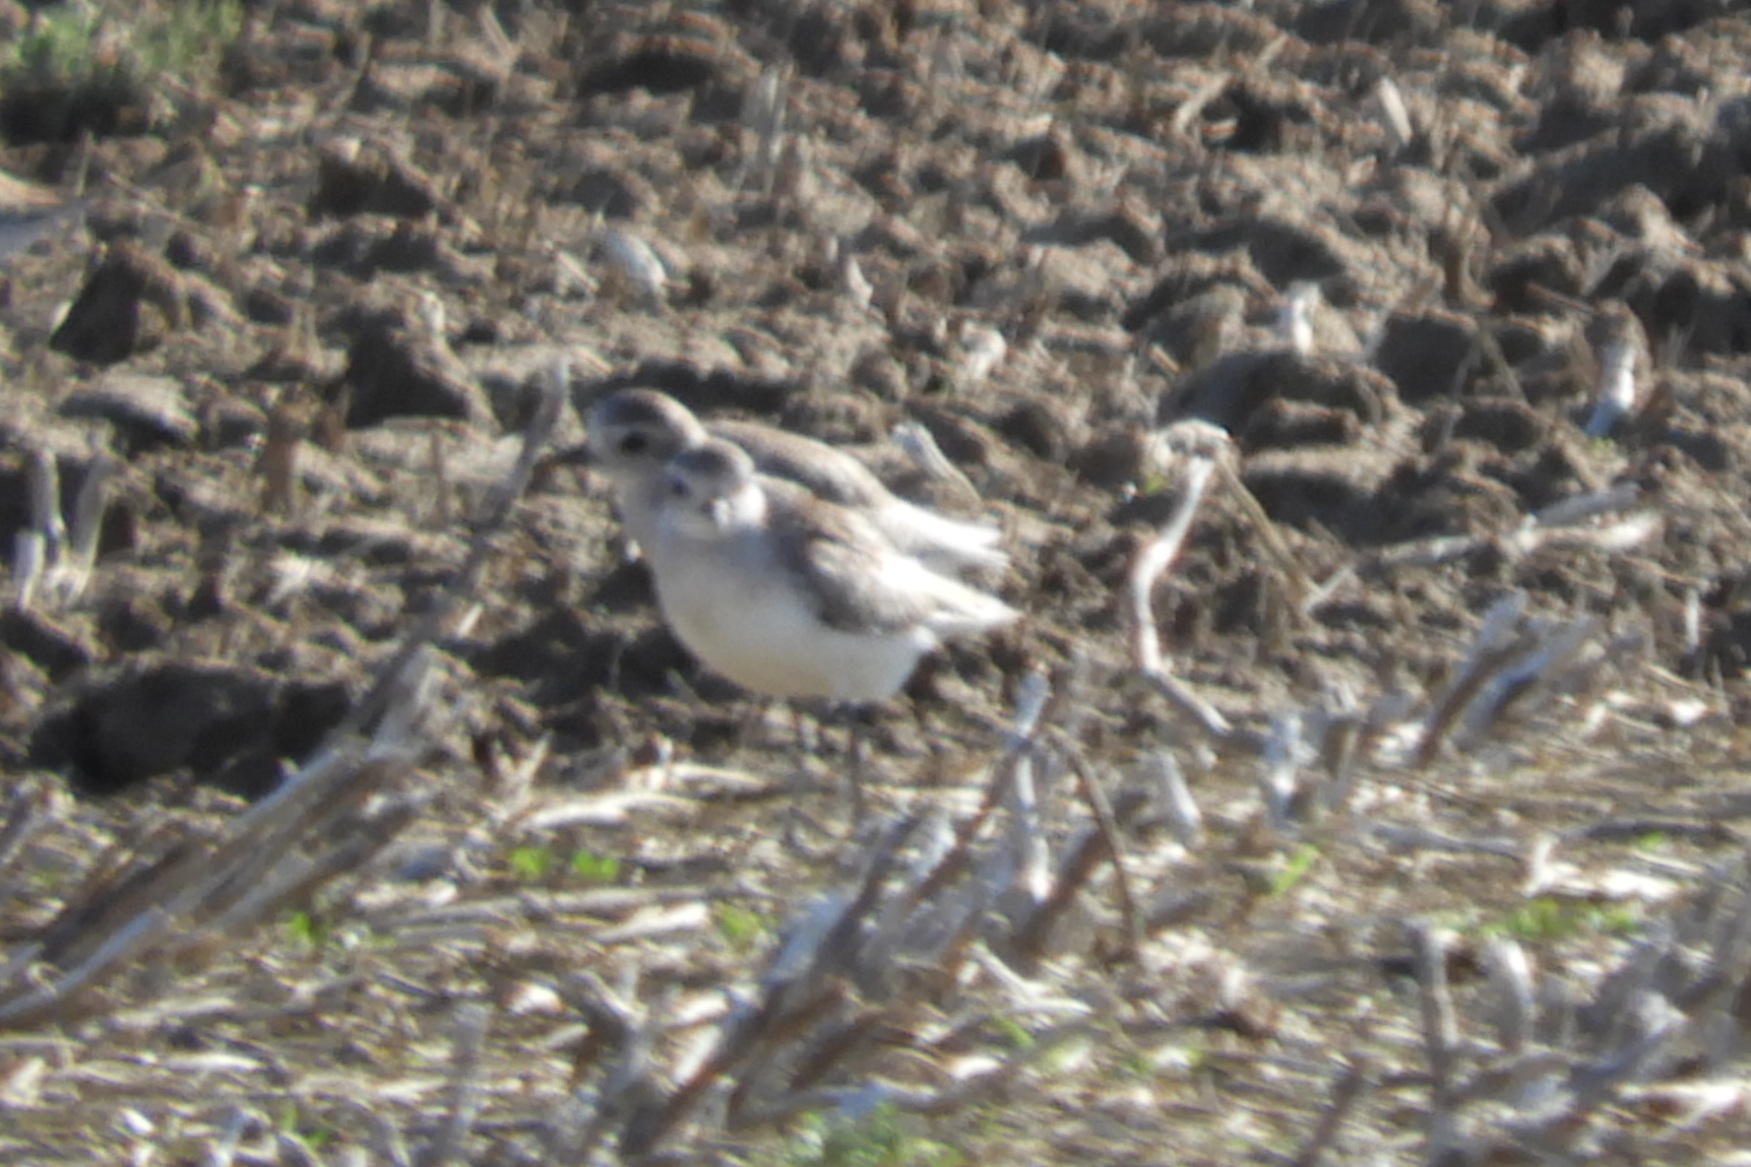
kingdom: Animalia
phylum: Chordata
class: Aves
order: Charadriiformes
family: Charadriidae
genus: Pluvialis
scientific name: Pluvialis squatarola
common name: Grey plover
